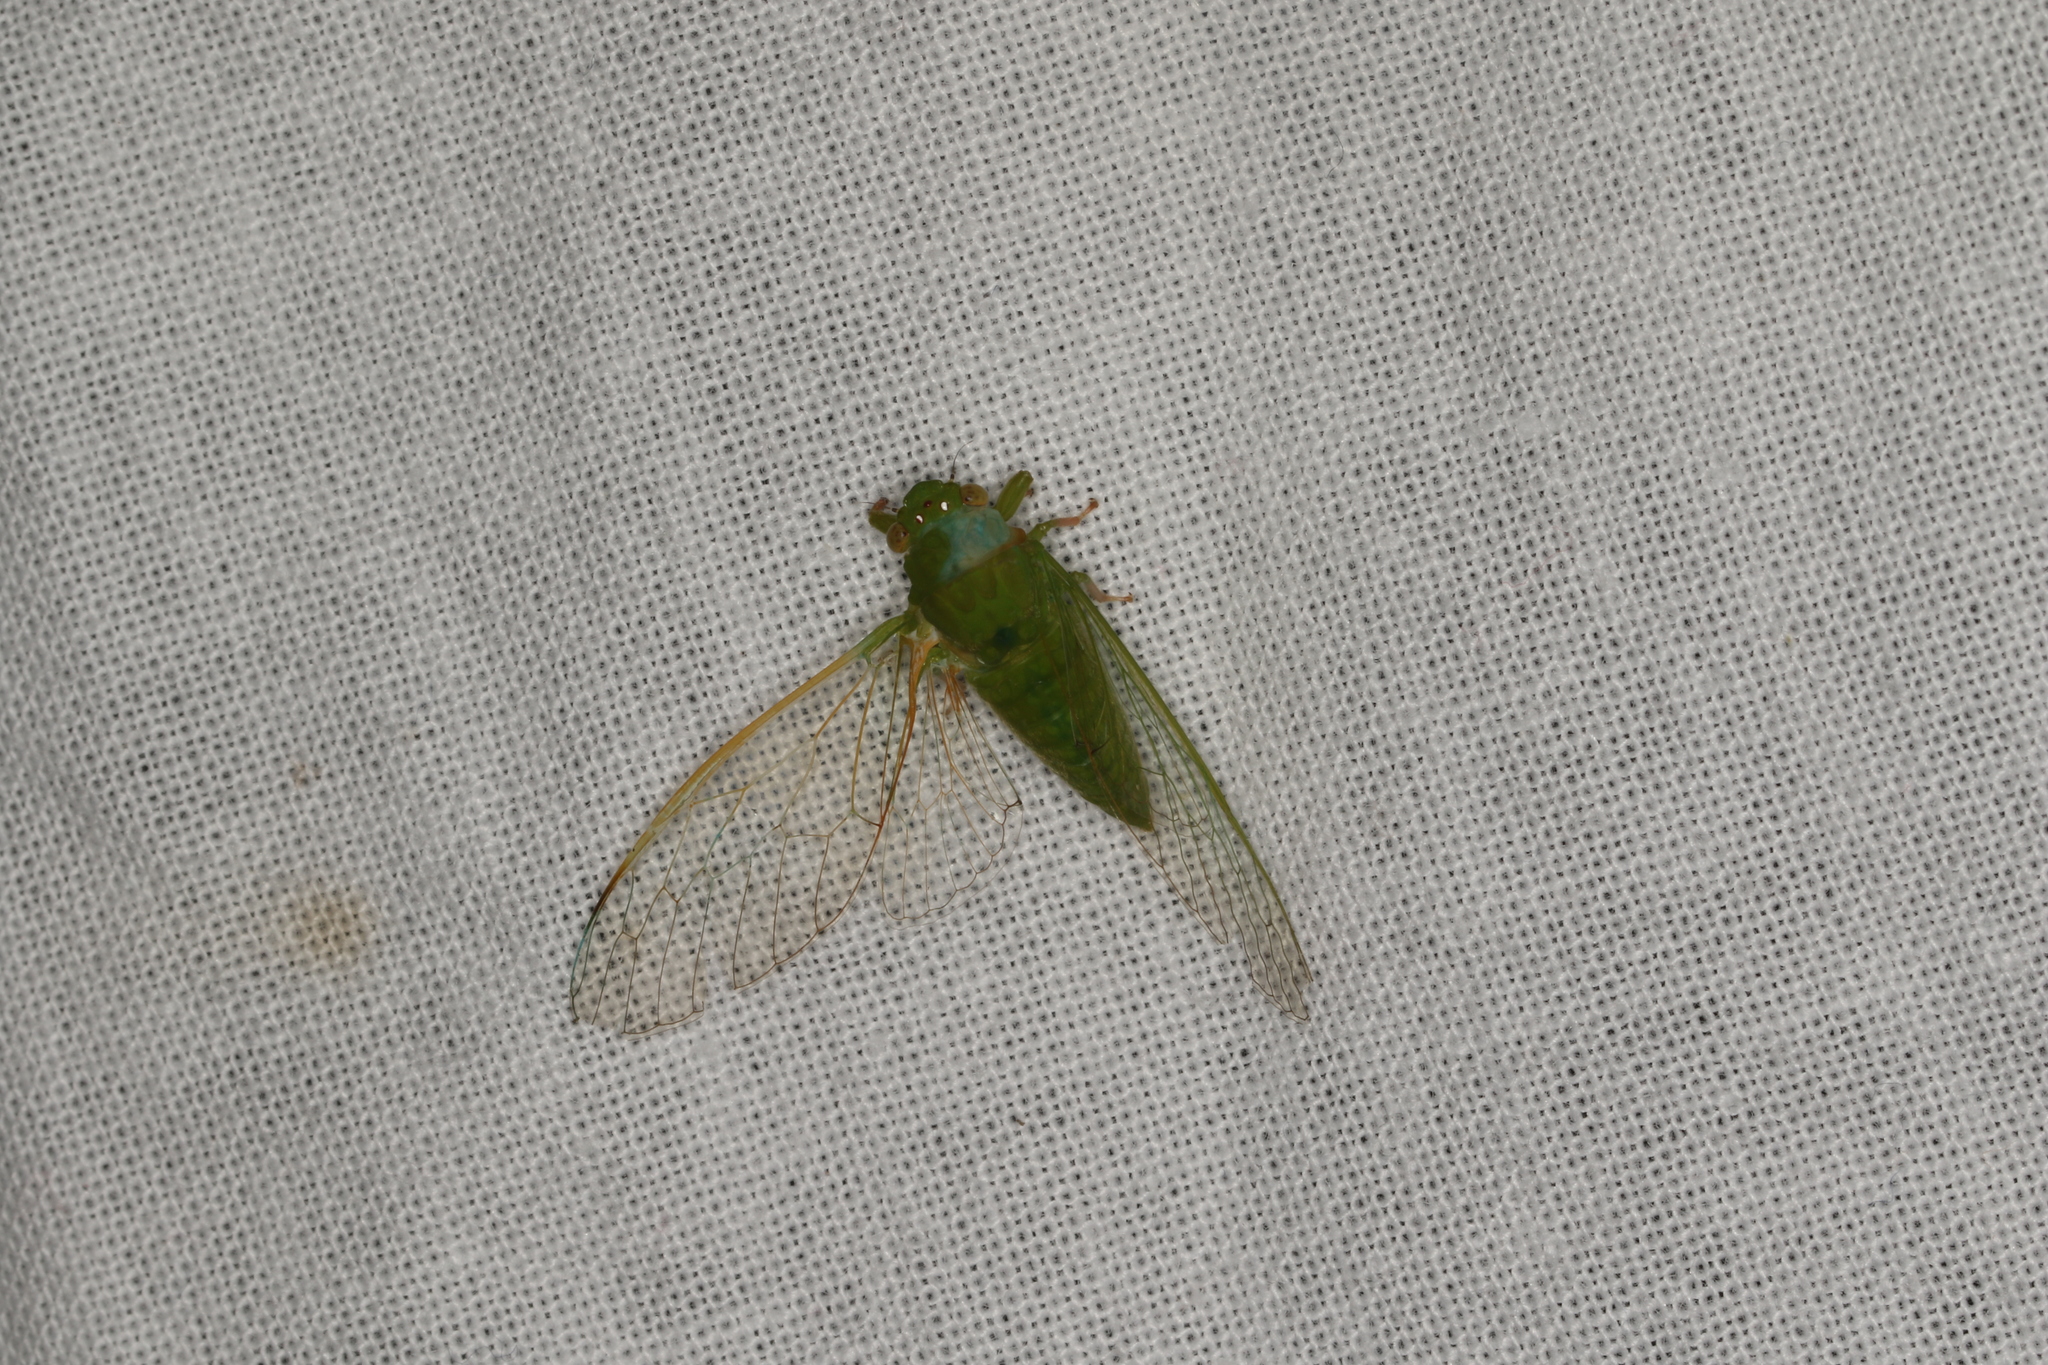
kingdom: Animalia
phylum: Arthropoda
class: Insecta
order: Hemiptera
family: Cicadidae
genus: Guineapsaltria
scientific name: Guineapsaltria flava
